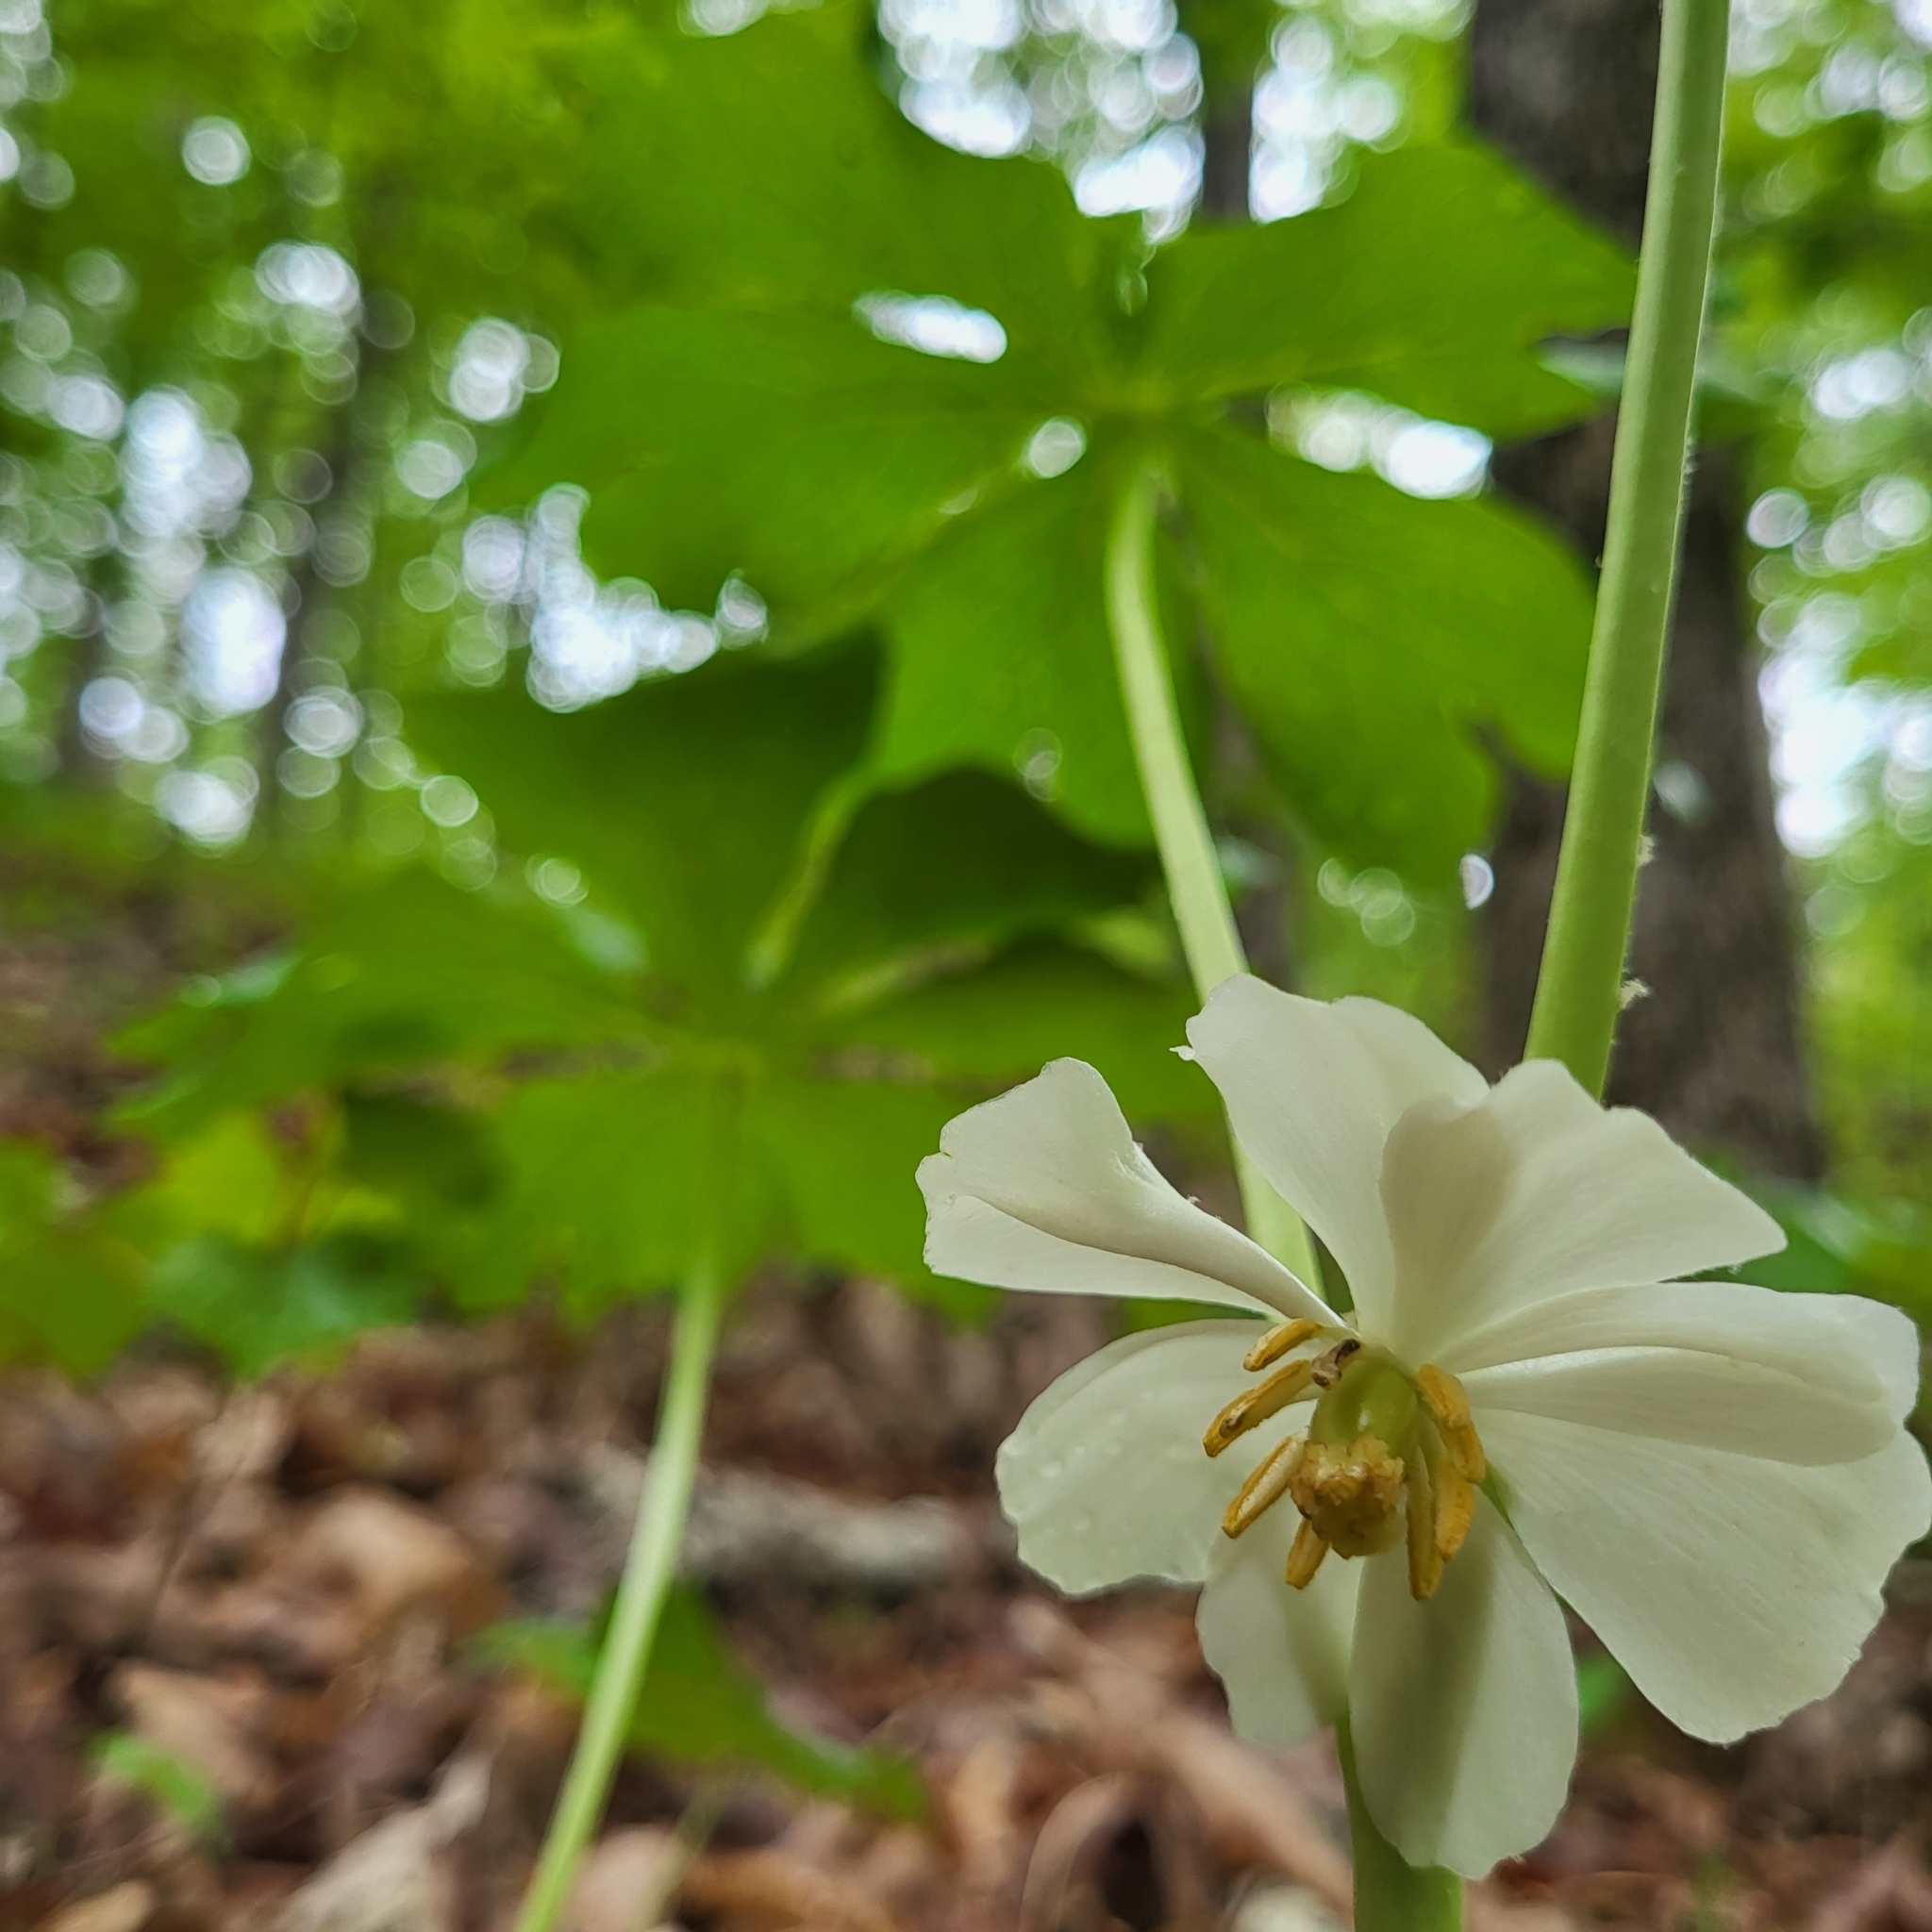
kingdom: Plantae
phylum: Tracheophyta
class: Magnoliopsida
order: Ranunculales
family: Berberidaceae
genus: Podophyllum
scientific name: Podophyllum peltatum
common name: Wild mandrake
